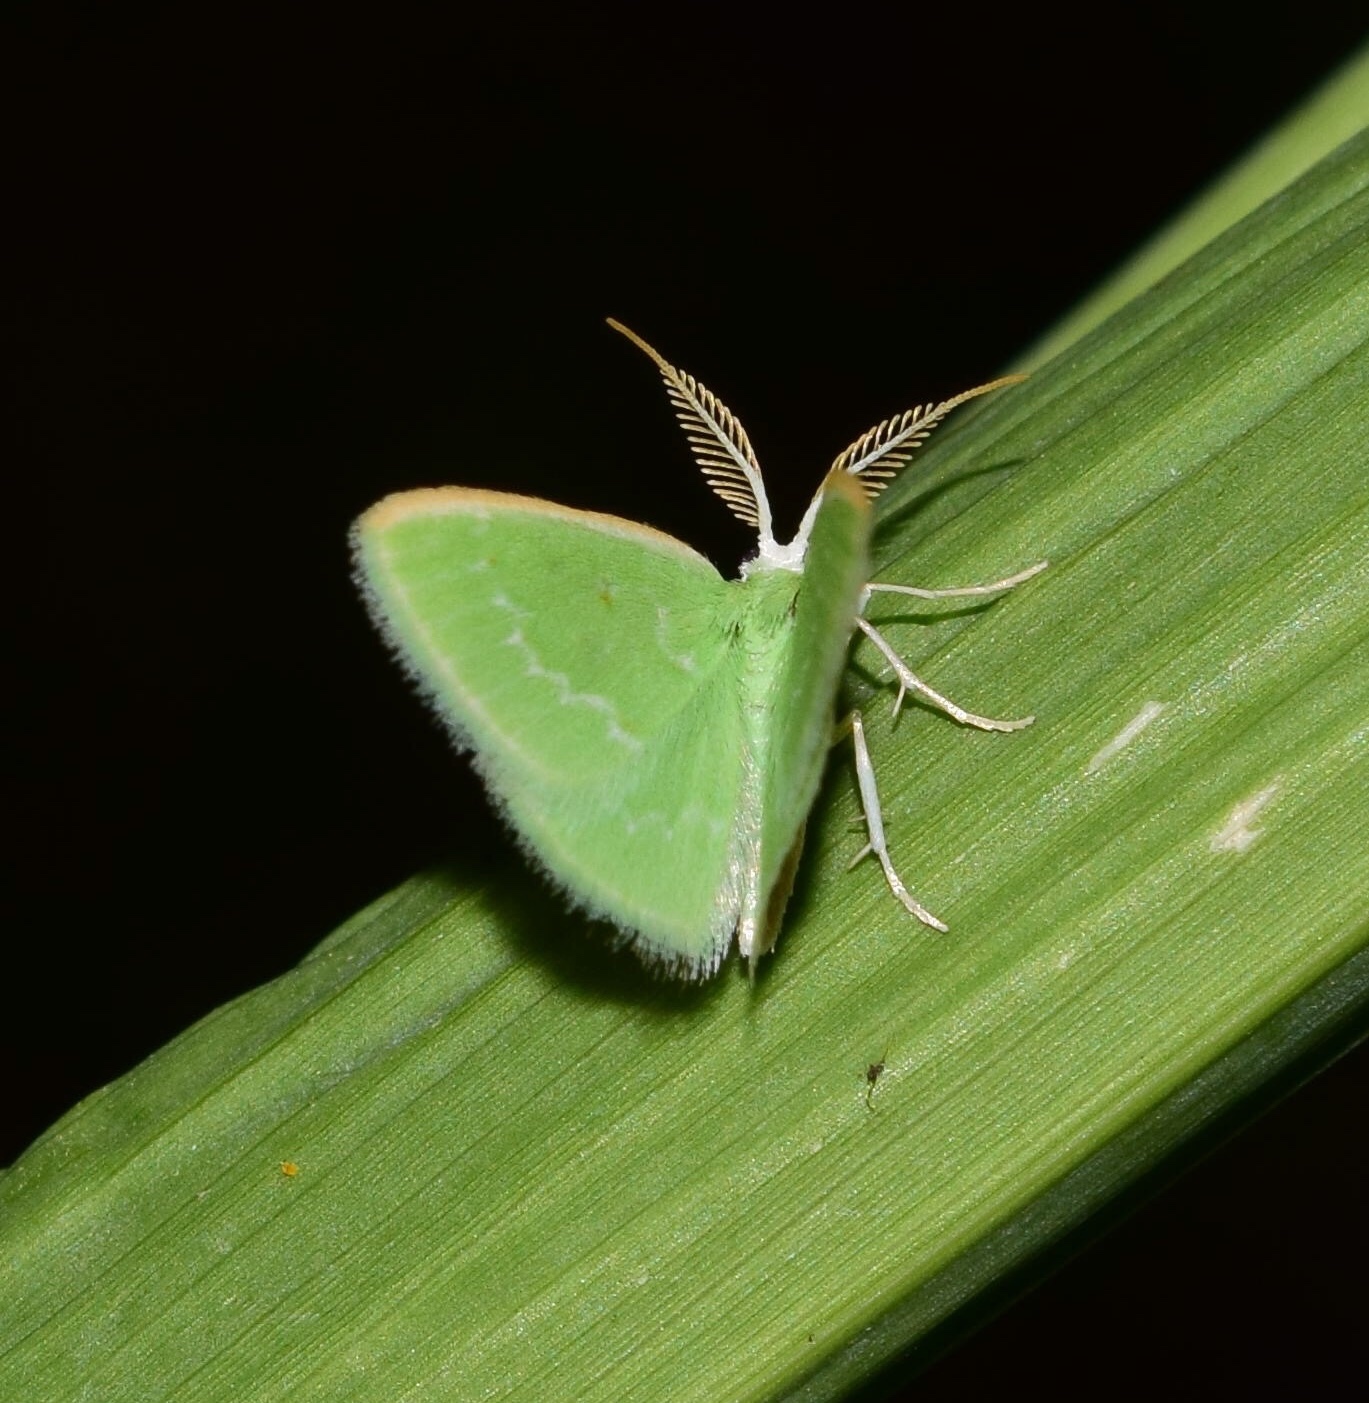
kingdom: Animalia
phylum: Arthropoda
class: Insecta
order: Lepidoptera
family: Geometridae
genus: Comostolopsis
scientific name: Comostolopsis germana
